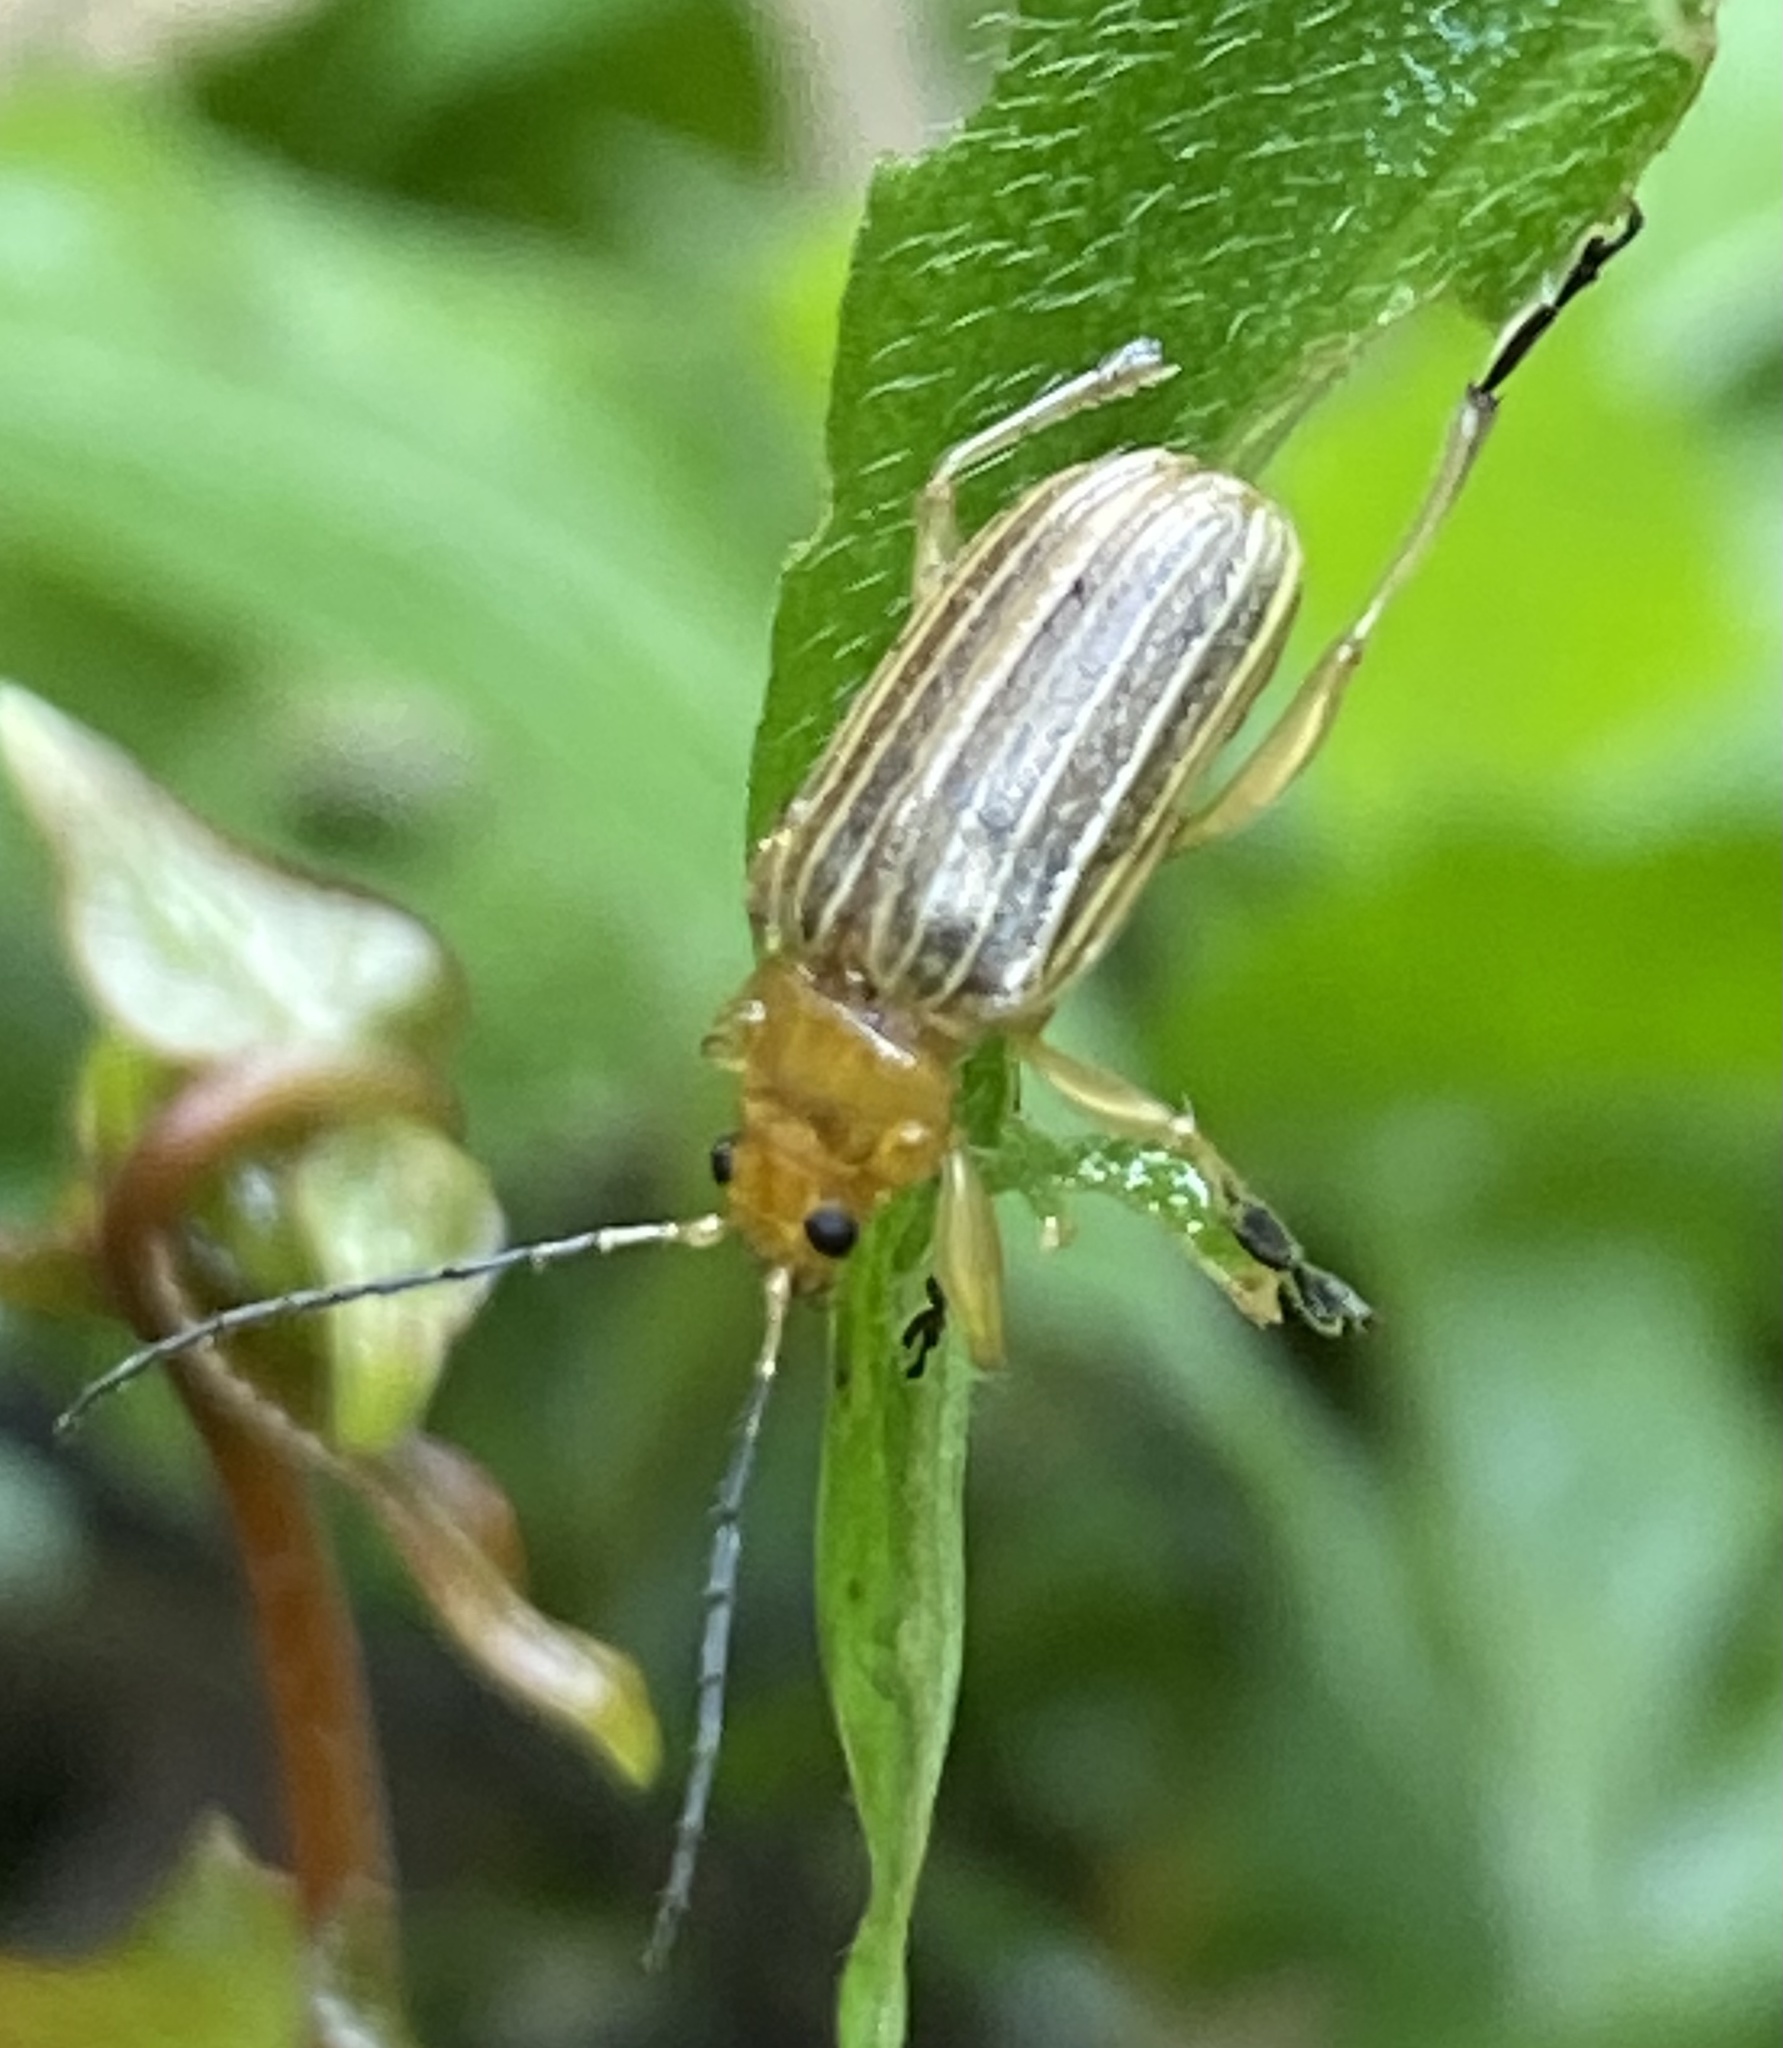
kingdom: Animalia
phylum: Arthropoda
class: Insecta
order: Coleoptera
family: Chrysomelidae
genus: Metaxyonycha
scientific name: Metaxyonycha
